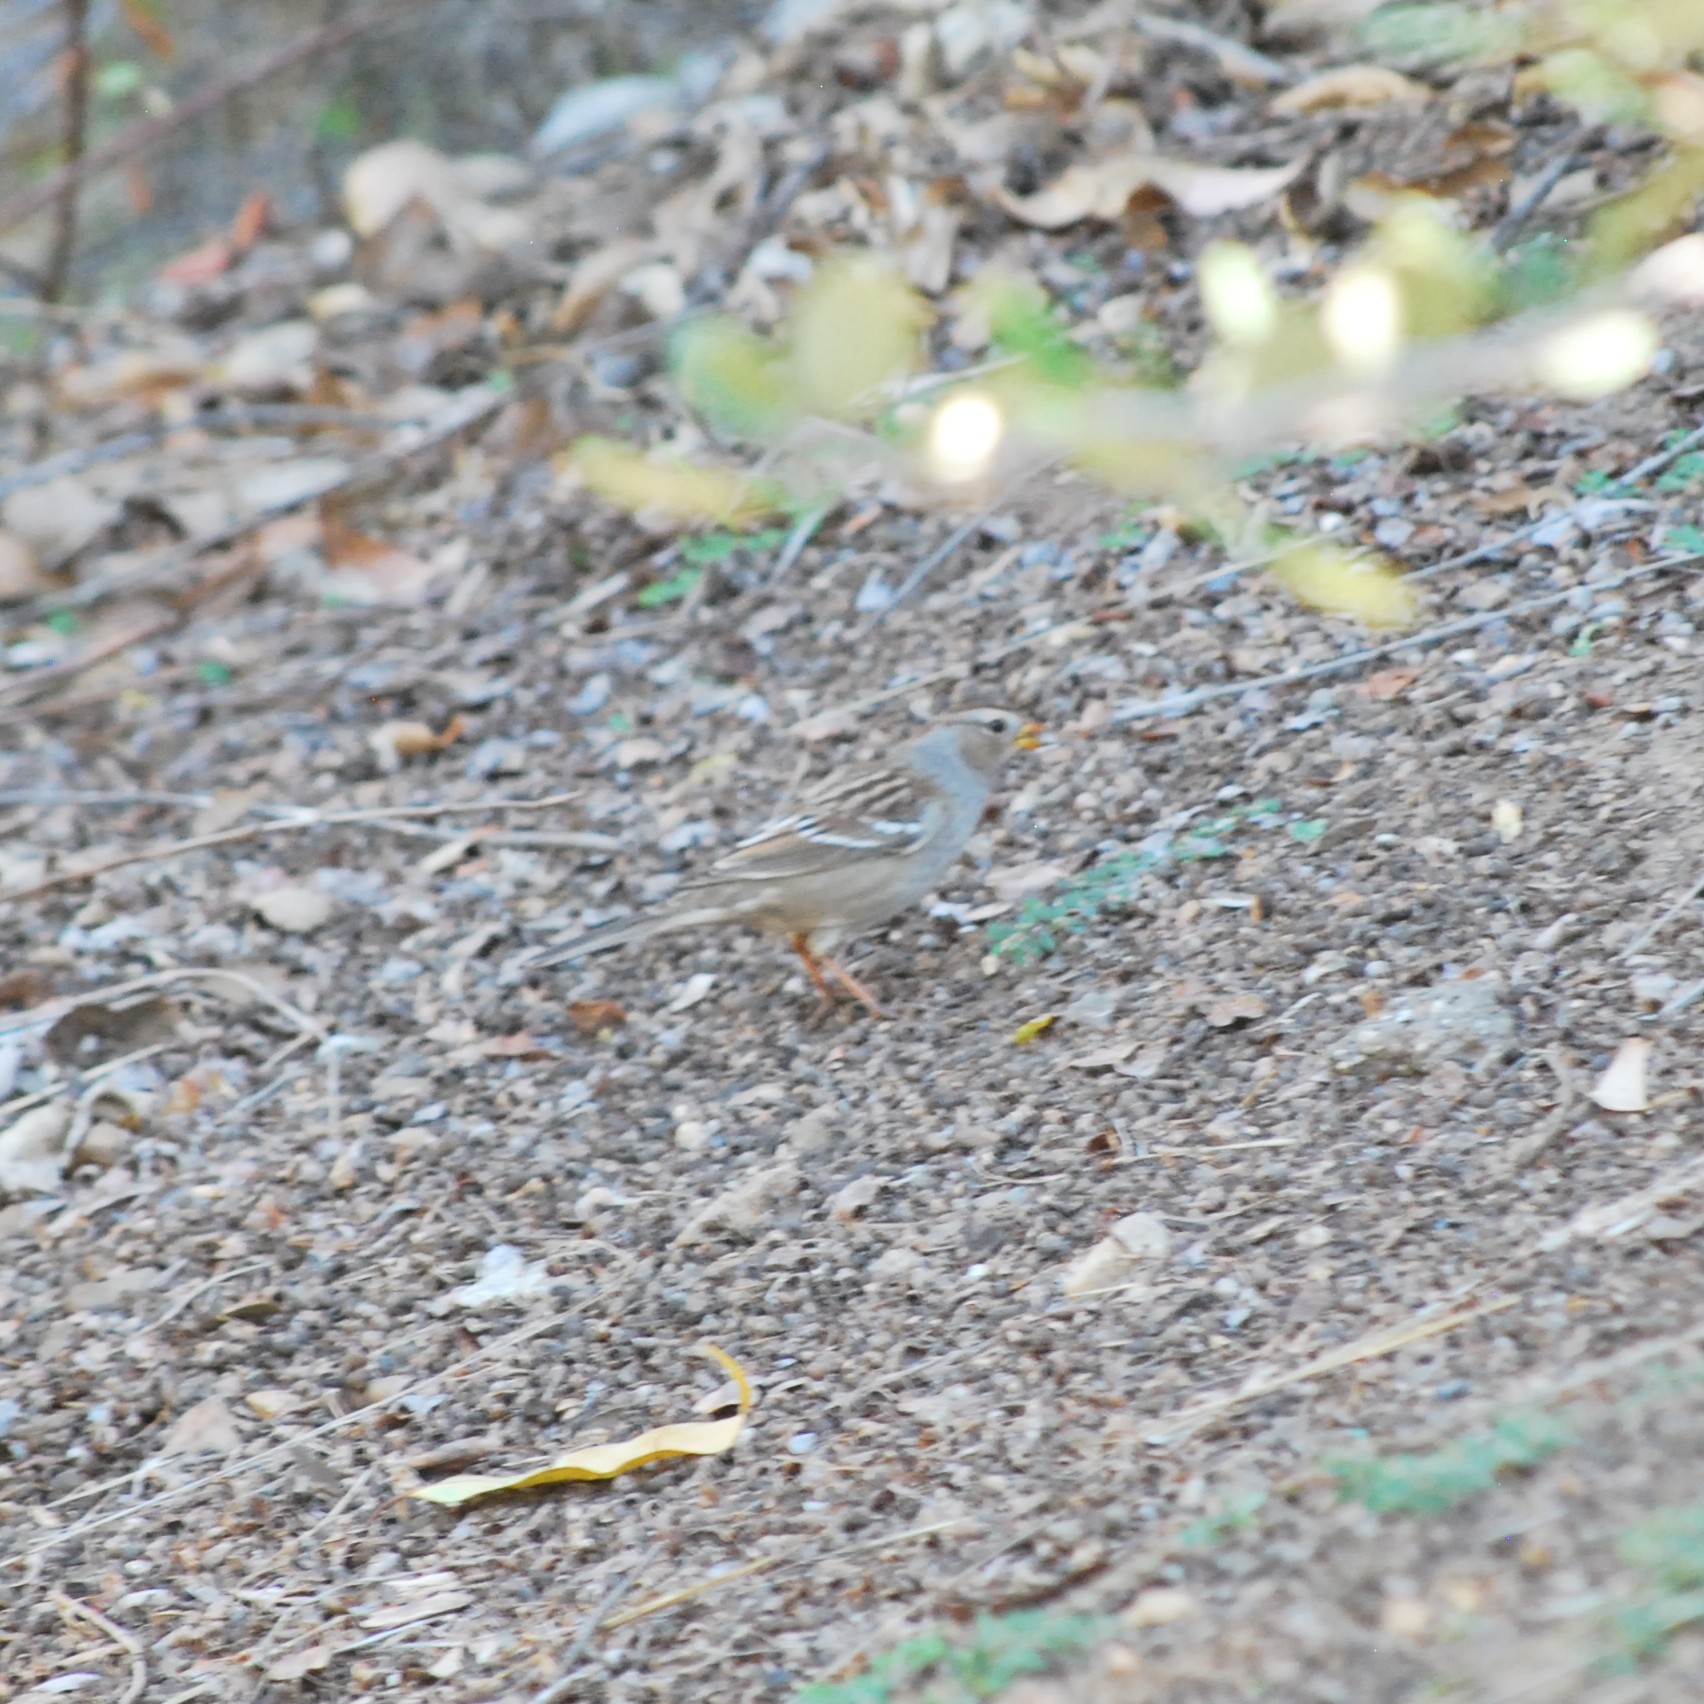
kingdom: Animalia
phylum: Chordata
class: Aves
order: Passeriformes
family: Passerellidae
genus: Zonotrichia
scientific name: Zonotrichia leucophrys
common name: White-crowned sparrow
